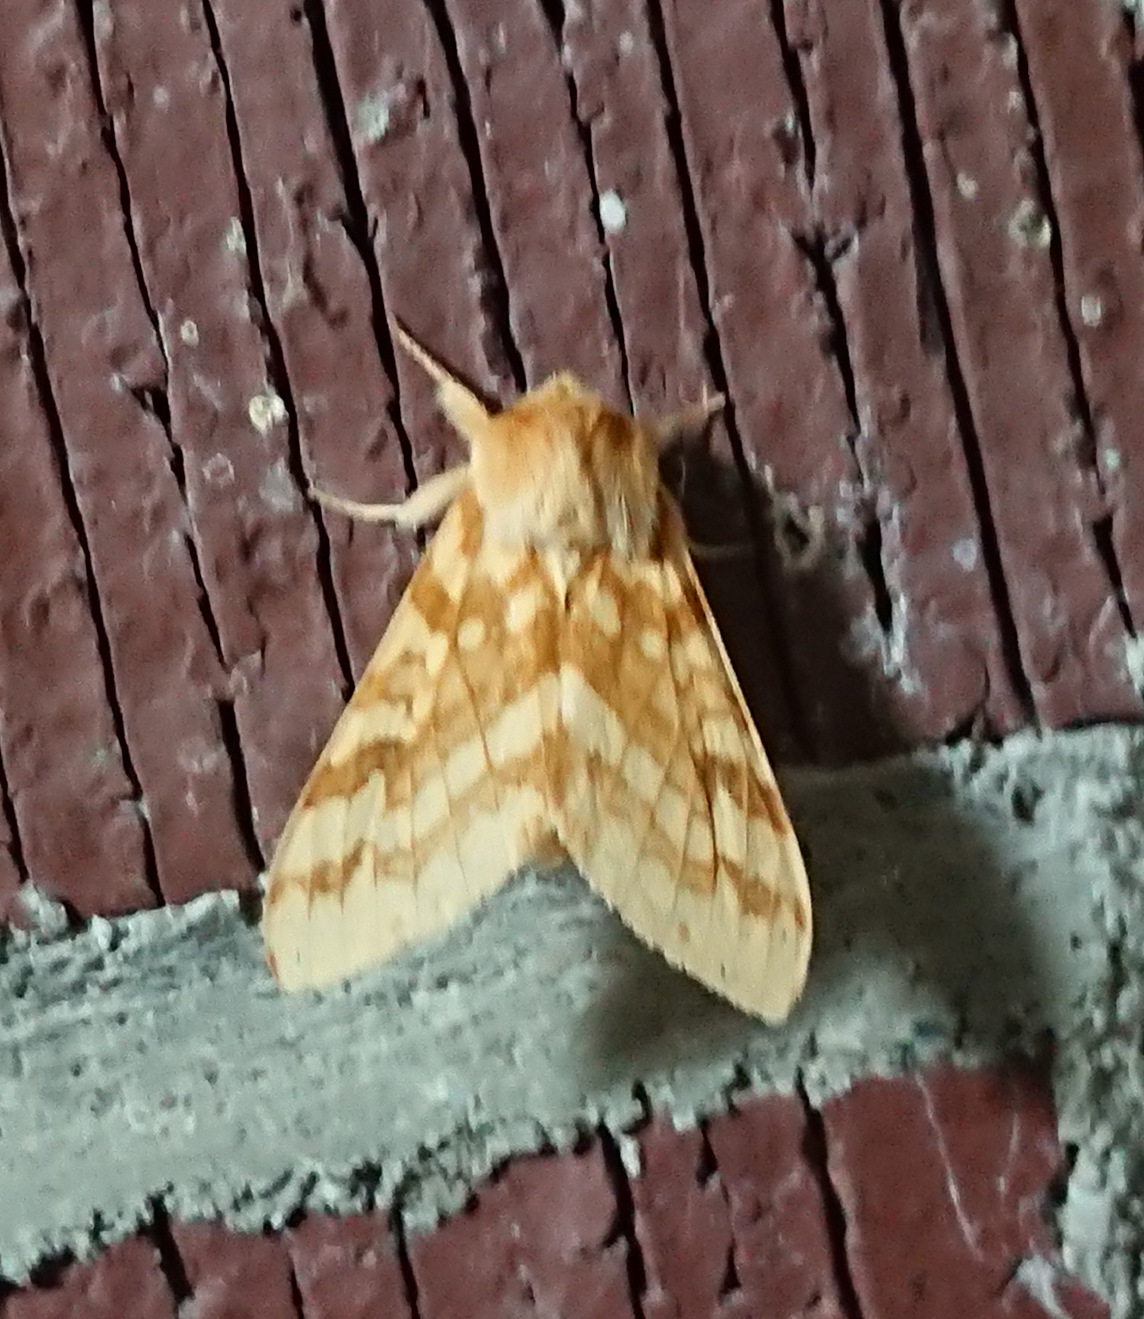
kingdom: Animalia
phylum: Arthropoda
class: Insecta
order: Lepidoptera
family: Erebidae
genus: Lophocampa
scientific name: Lophocampa maculata
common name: Spotted tussock moth
